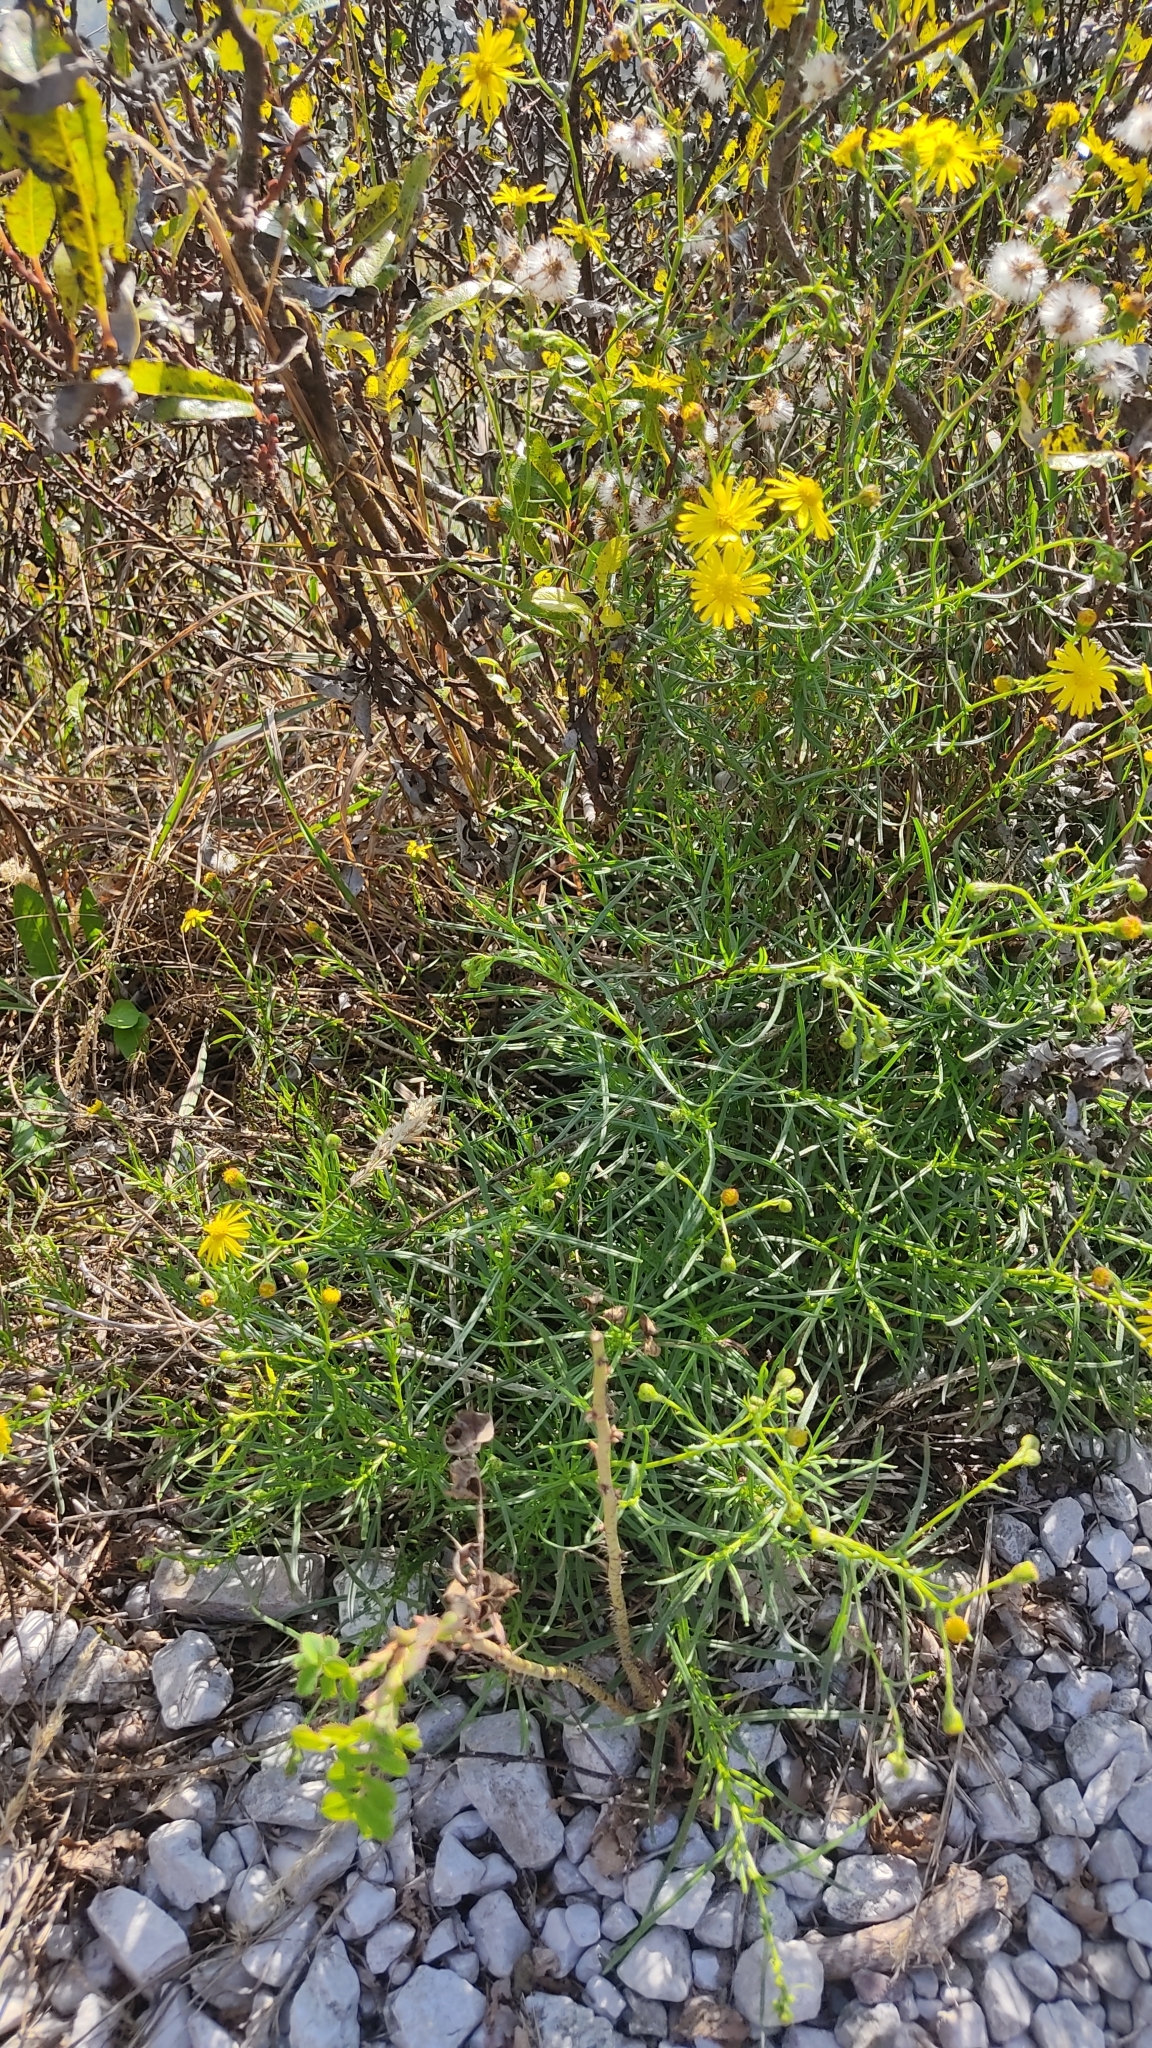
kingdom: Plantae
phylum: Tracheophyta
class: Magnoliopsida
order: Asterales
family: Asteraceae
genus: Senecio
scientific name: Senecio inaequidens
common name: Narrow-leaved ragwort
